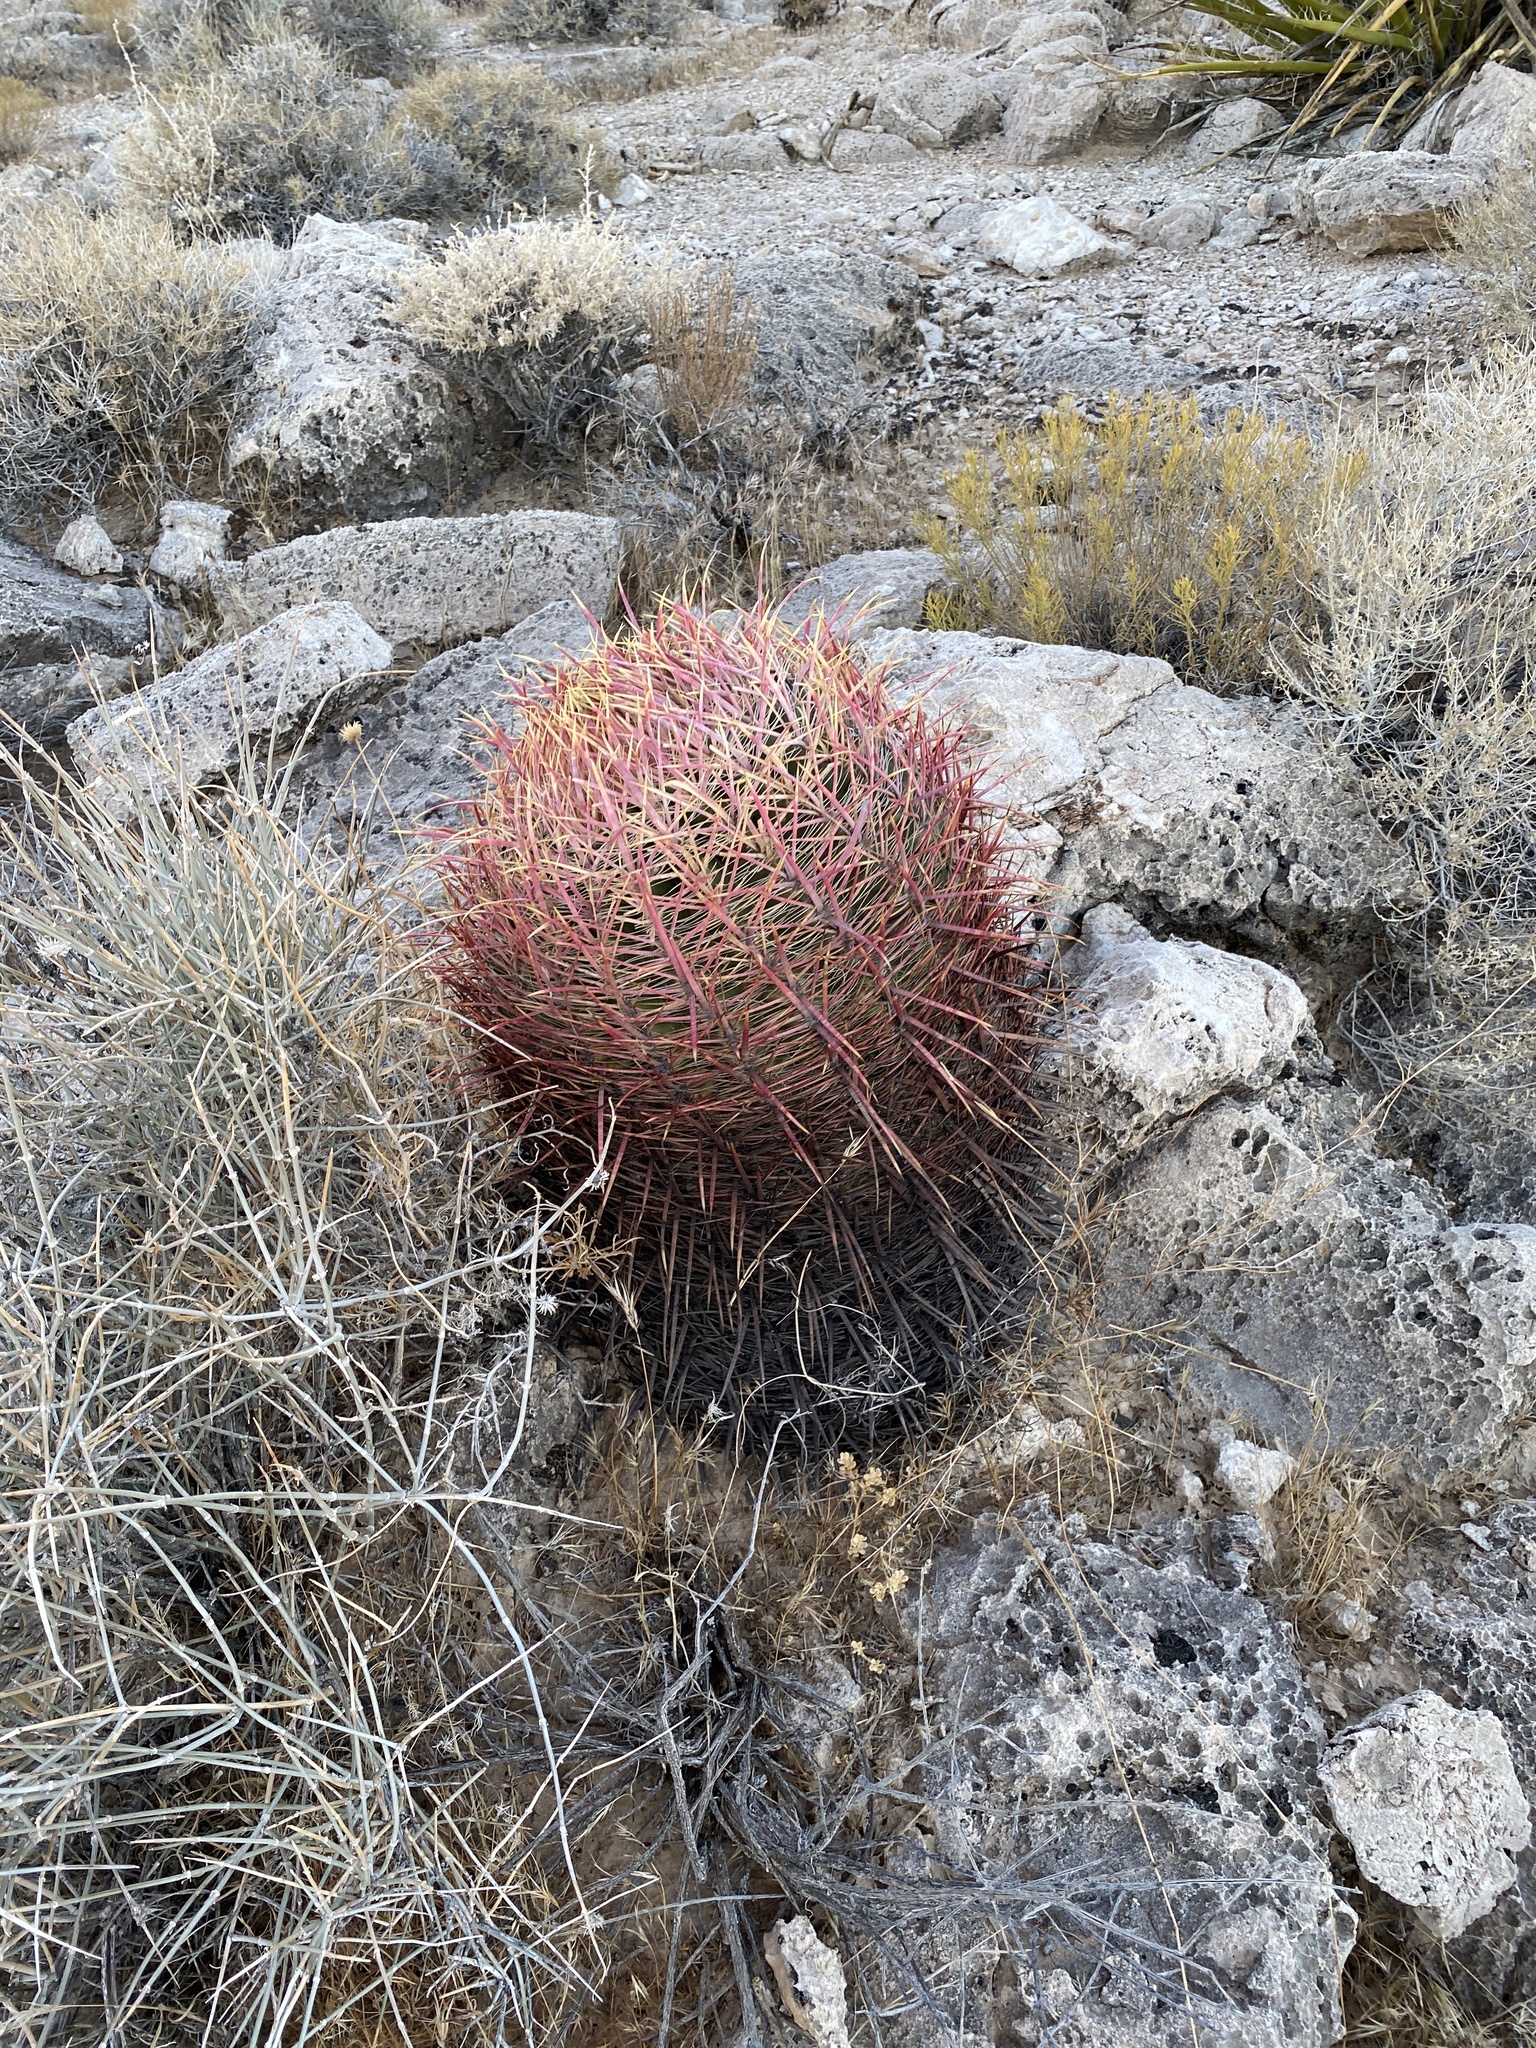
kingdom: Plantae
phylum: Tracheophyta
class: Magnoliopsida
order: Caryophyllales
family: Cactaceae
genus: Ferocactus
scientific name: Ferocactus cylindraceus
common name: California barrel cactus
